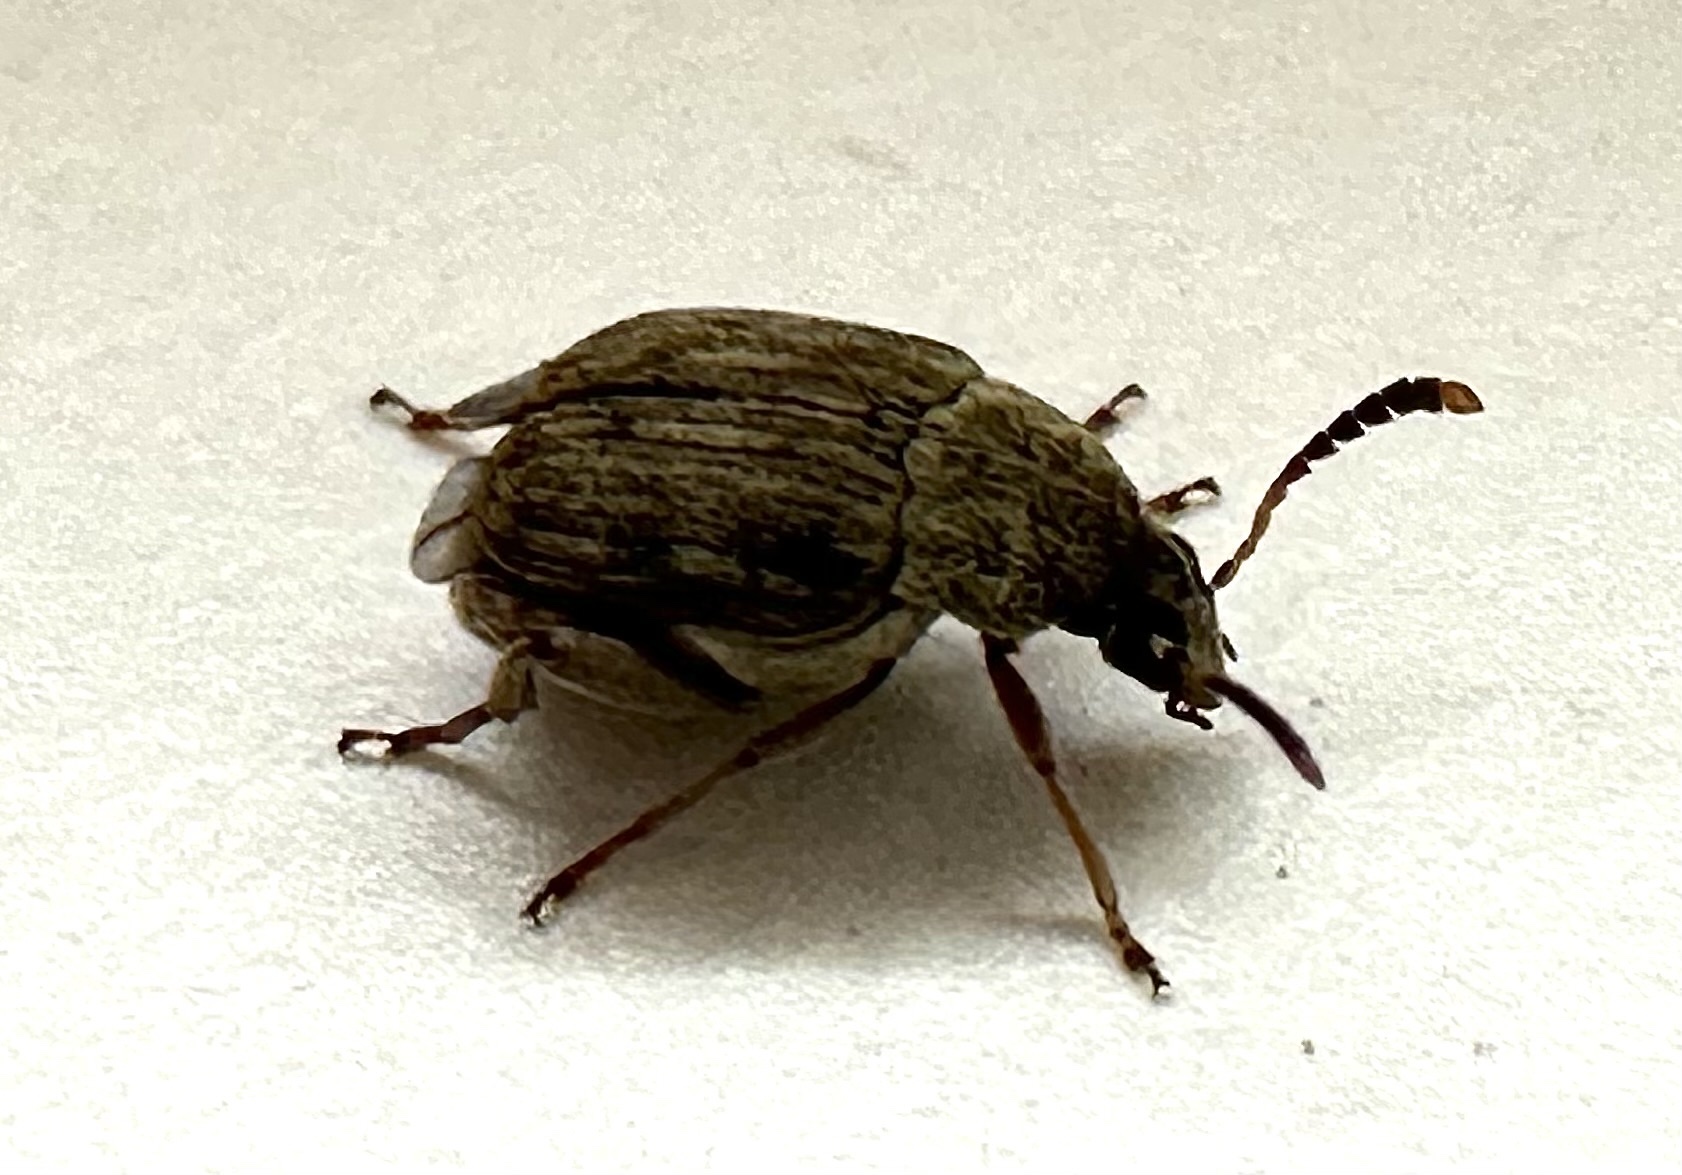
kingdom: Animalia
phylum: Arthropoda
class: Insecta
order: Coleoptera
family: Chrysomelidae
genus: Acanthoscelides
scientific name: Acanthoscelides obtectus
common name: Bean weevil
